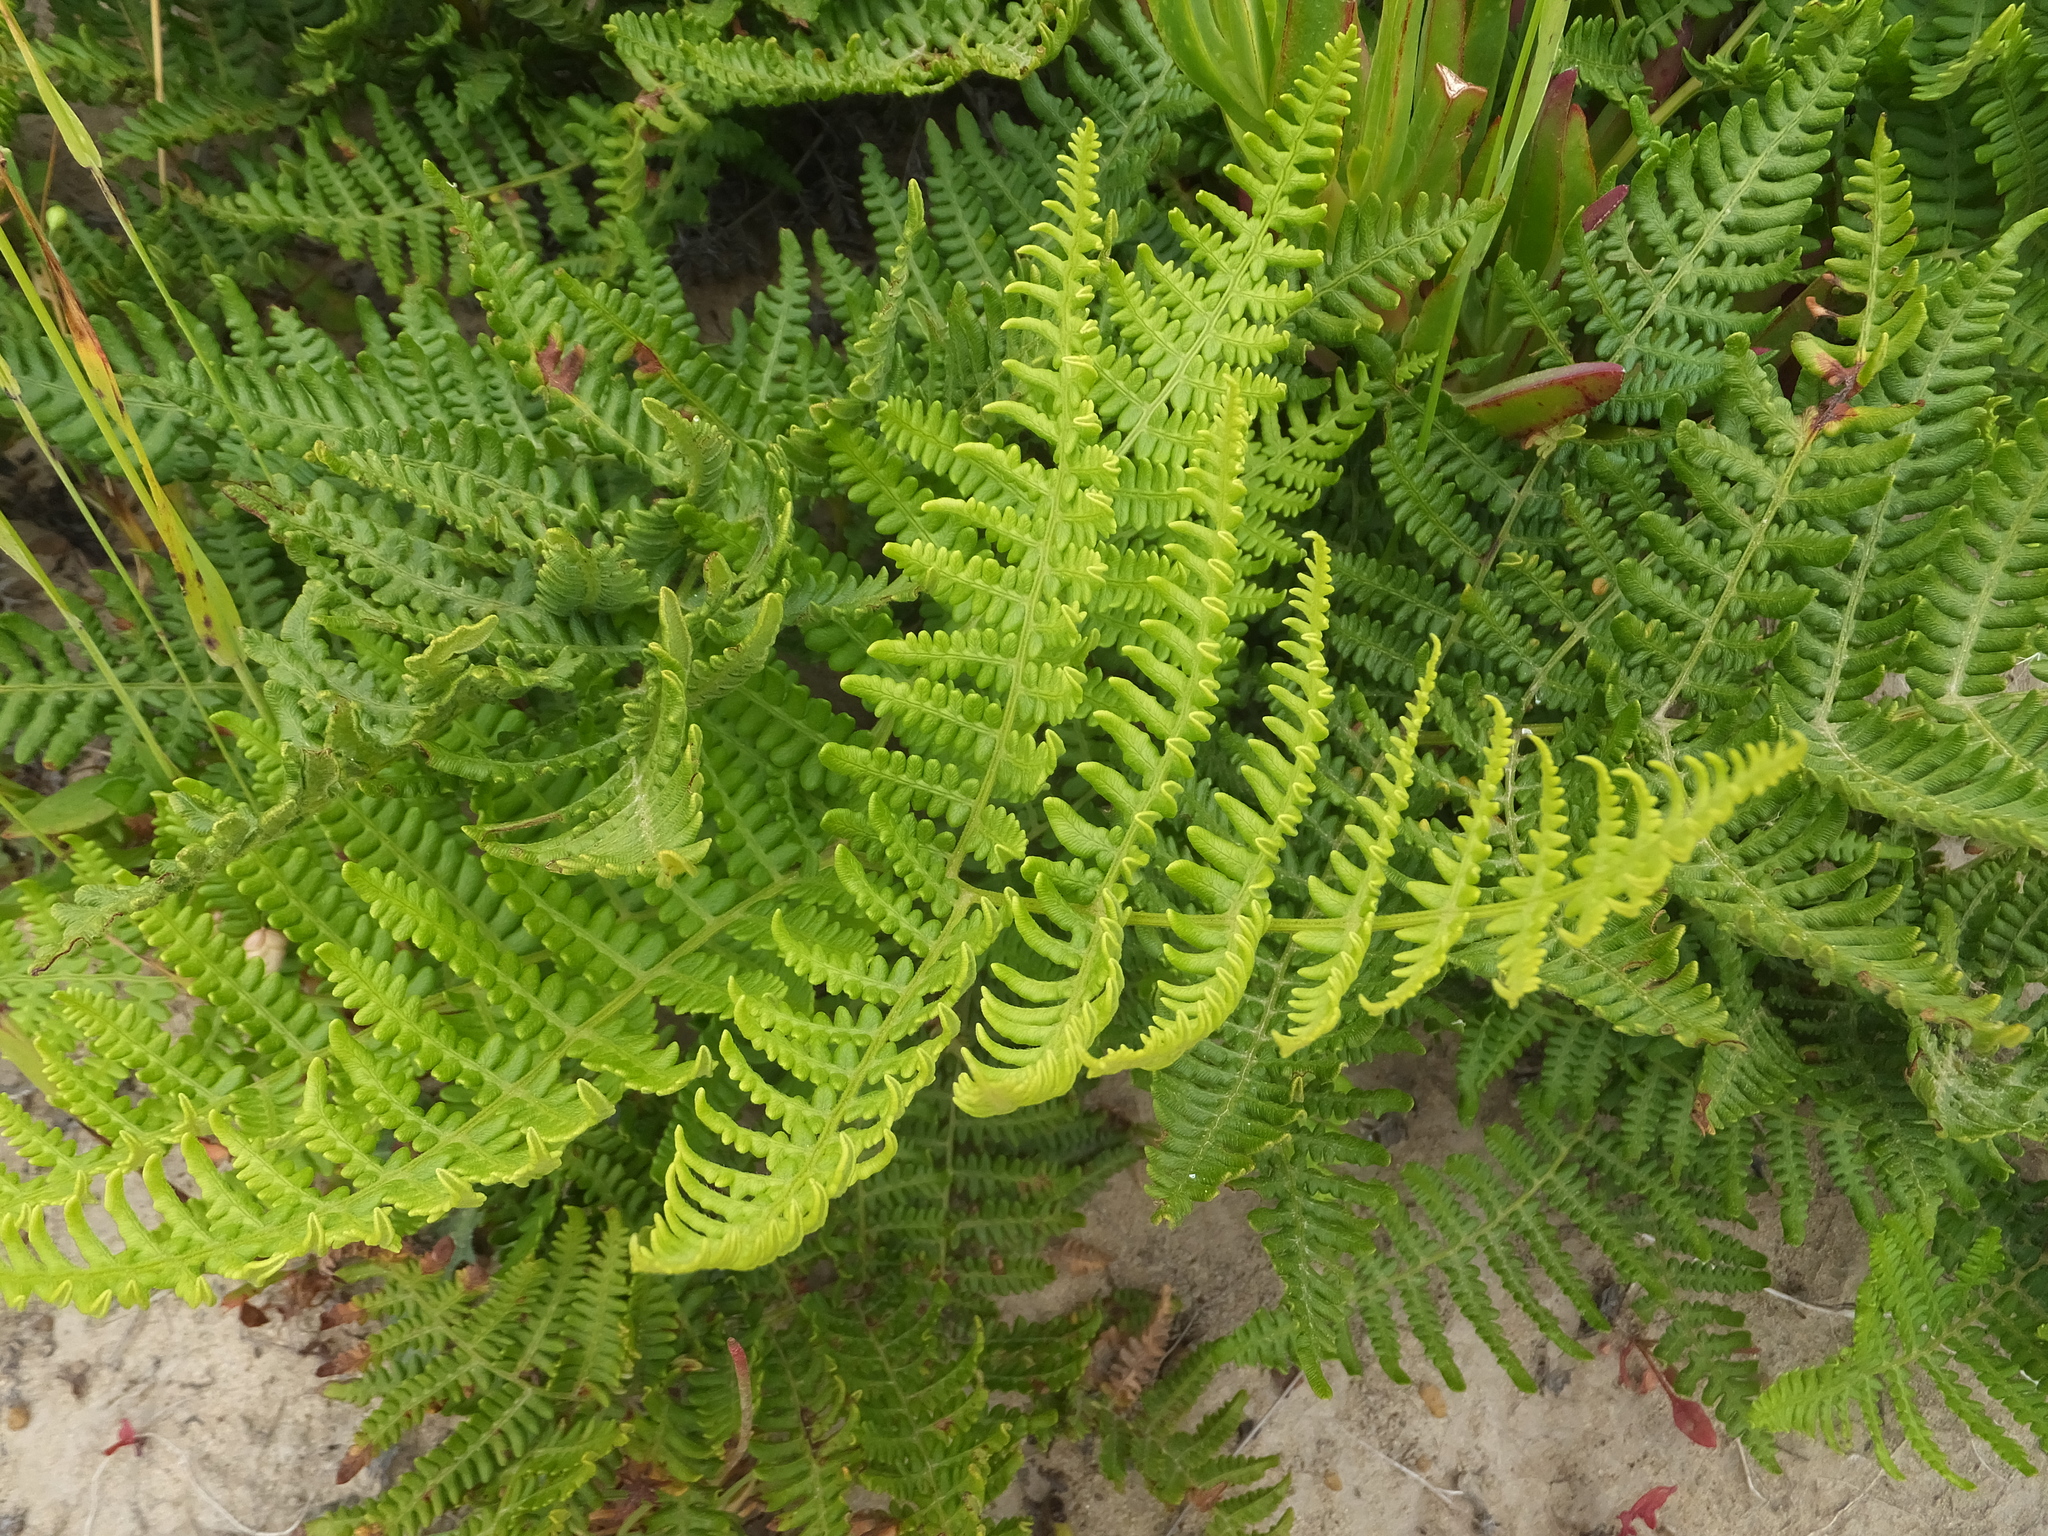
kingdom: Plantae
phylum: Tracheophyta
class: Polypodiopsida
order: Polypodiales
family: Dennstaedtiaceae
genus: Pteridium
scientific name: Pteridium aquilinum
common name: Bracken
